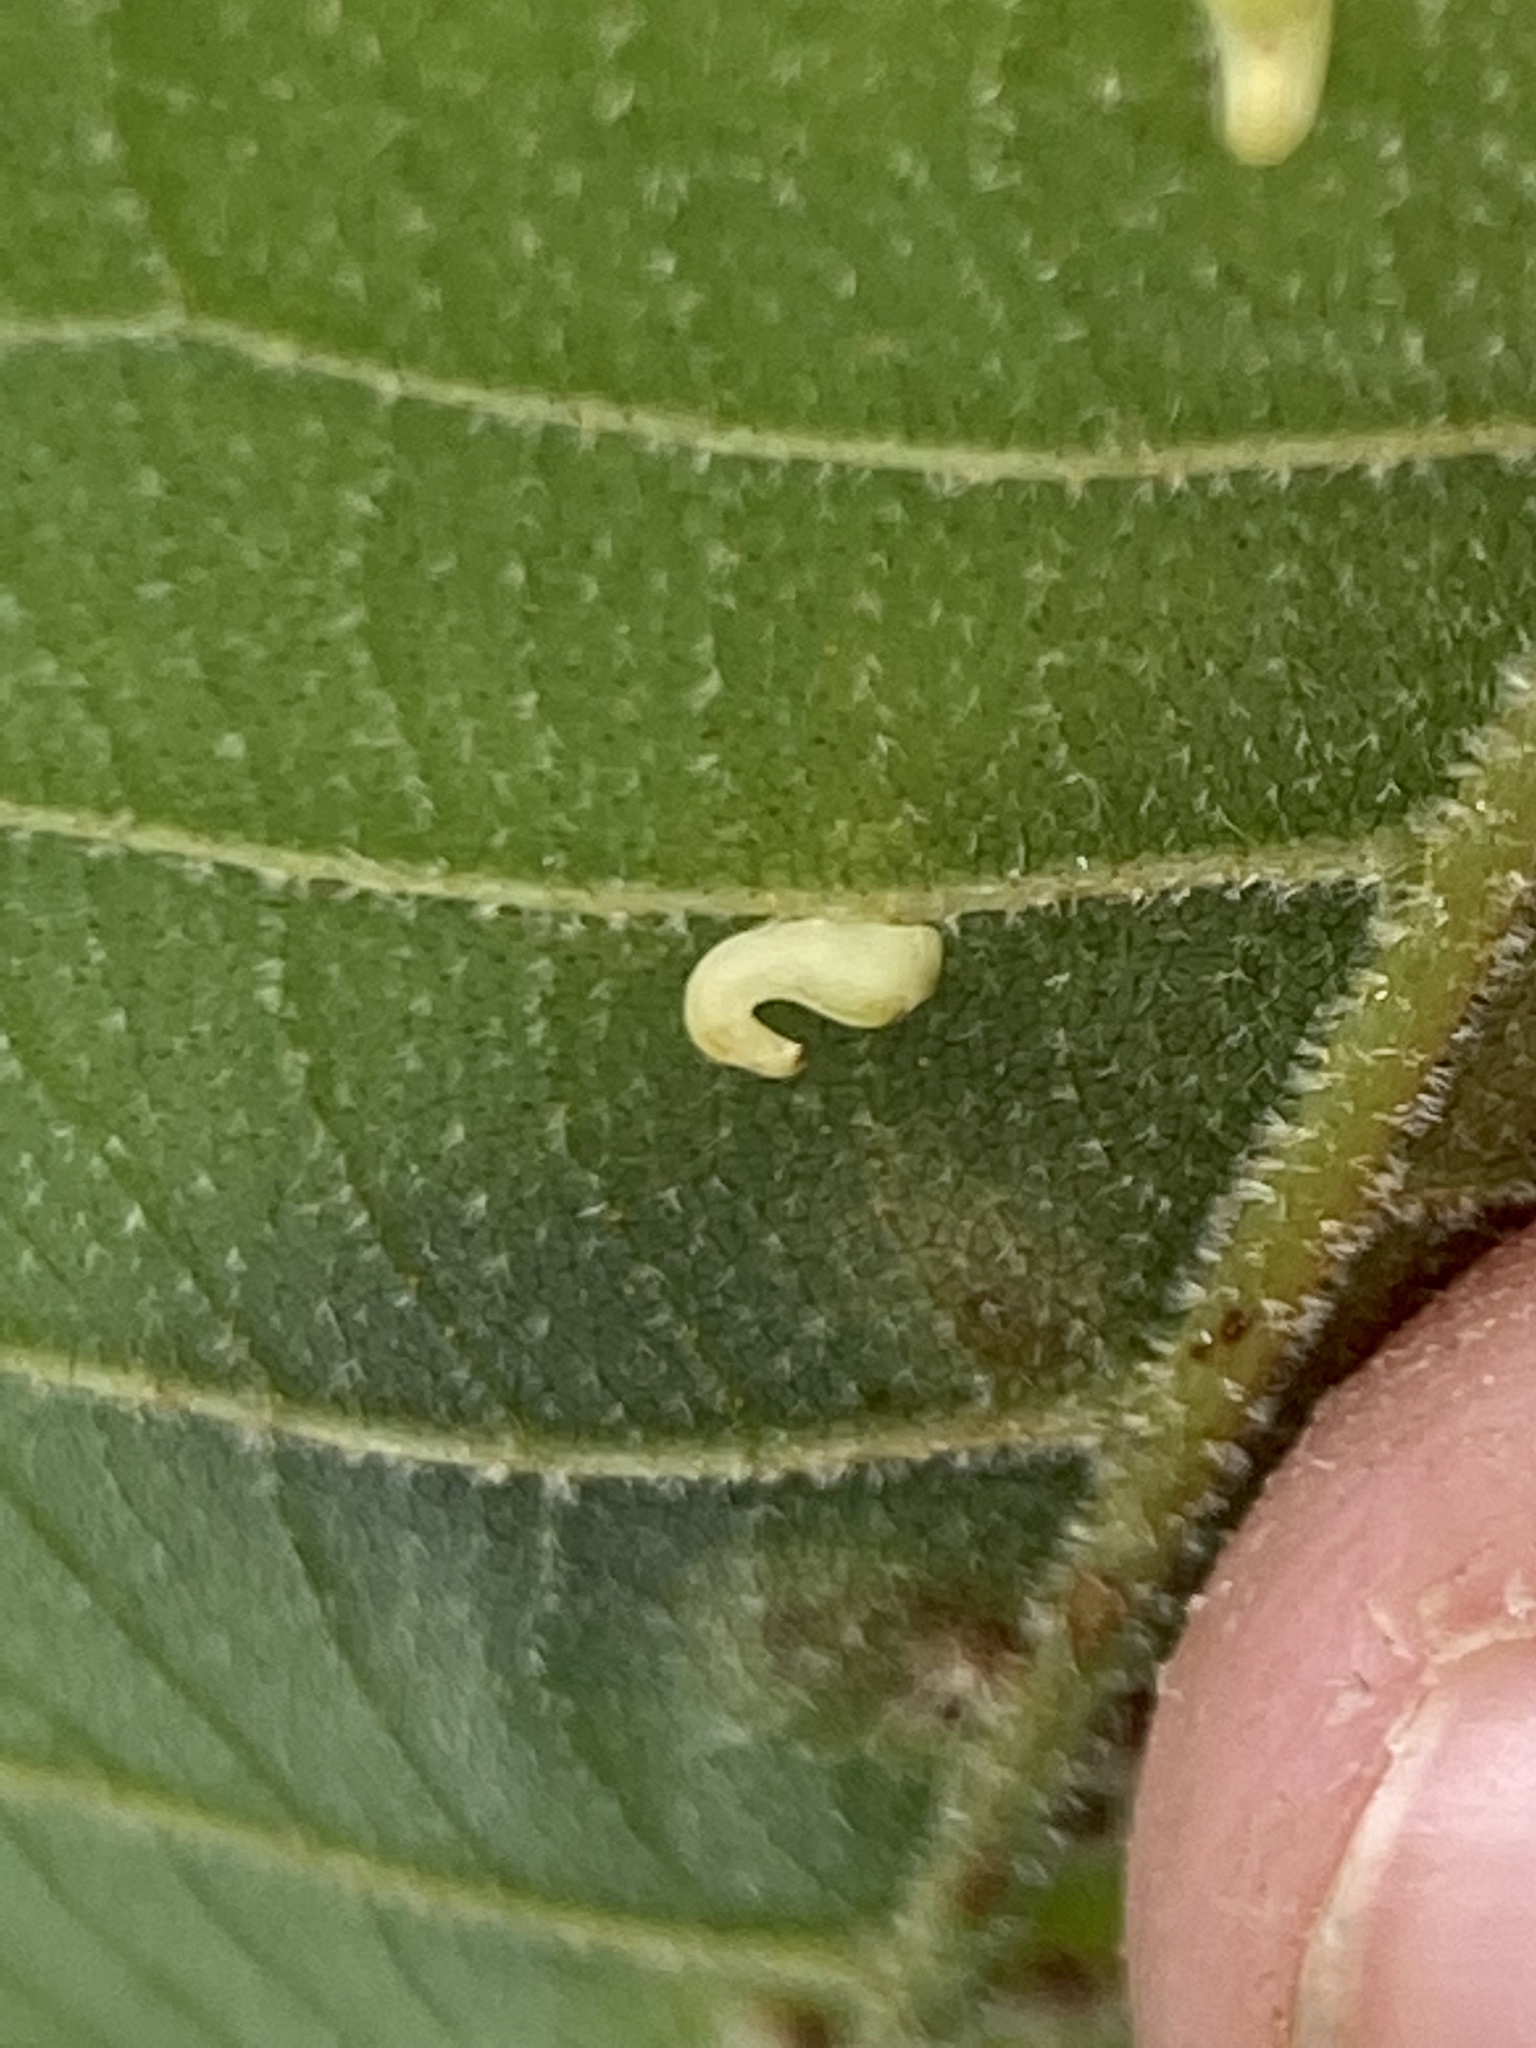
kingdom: Animalia
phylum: Arthropoda
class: Insecta
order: Diptera
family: Cecidomyiidae
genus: Caryomyia
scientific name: Caryomyia recurvata
